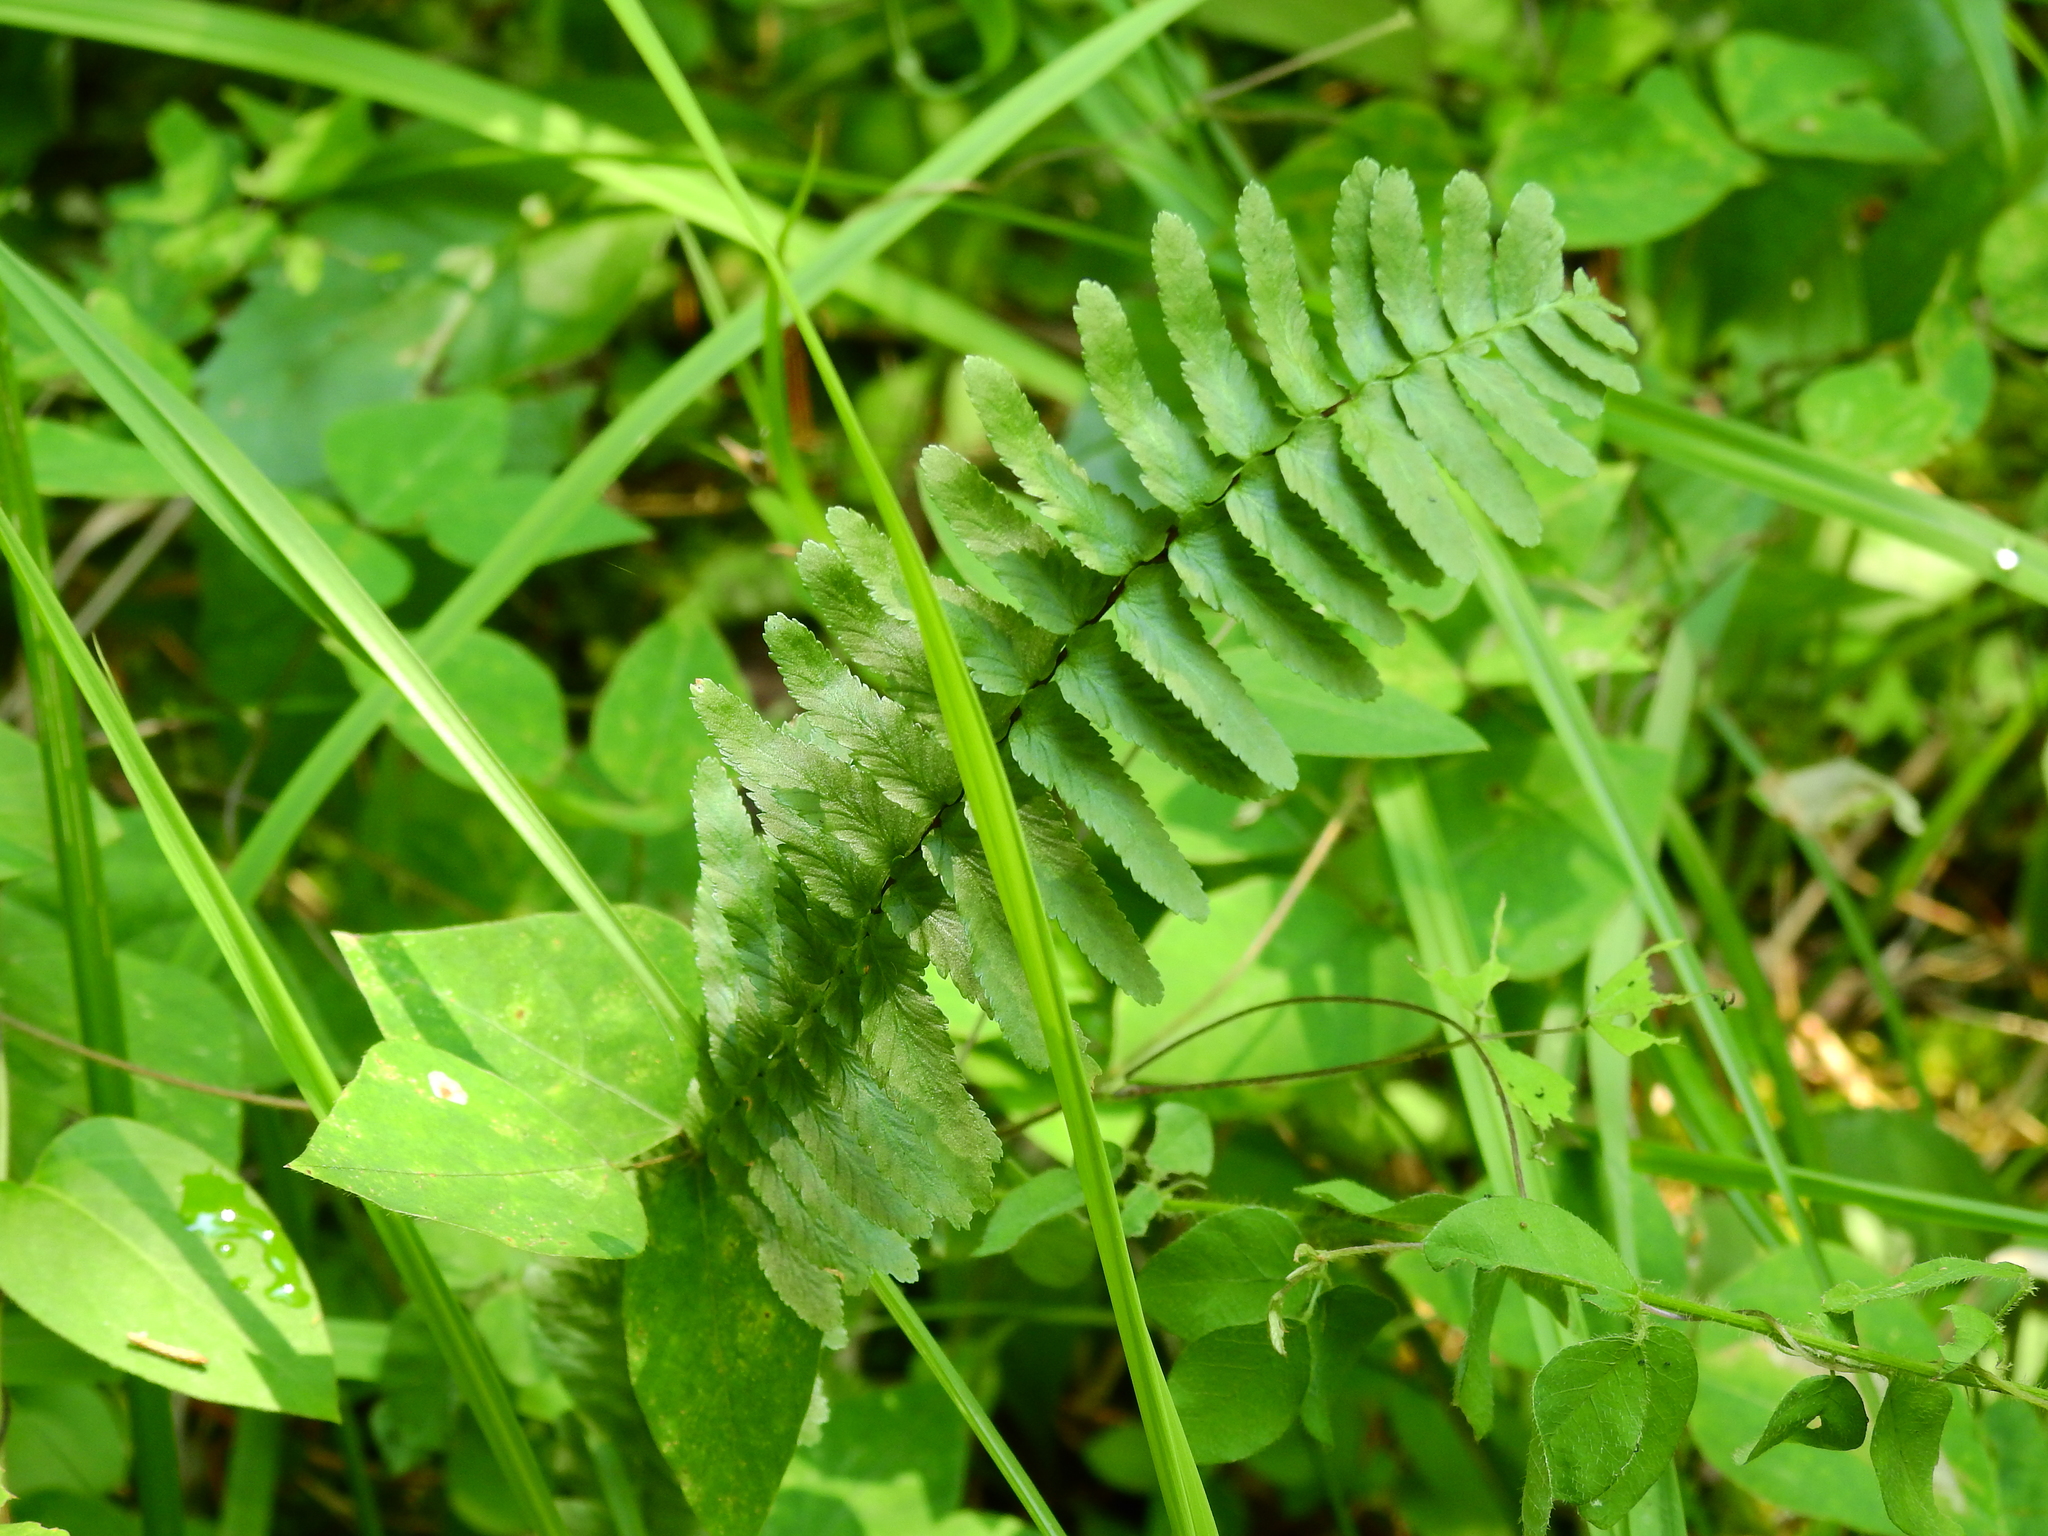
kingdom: Plantae
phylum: Tracheophyta
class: Polypodiopsida
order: Polypodiales
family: Aspleniaceae
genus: Asplenium
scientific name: Asplenium platyneuron
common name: Ebony spleenwort
